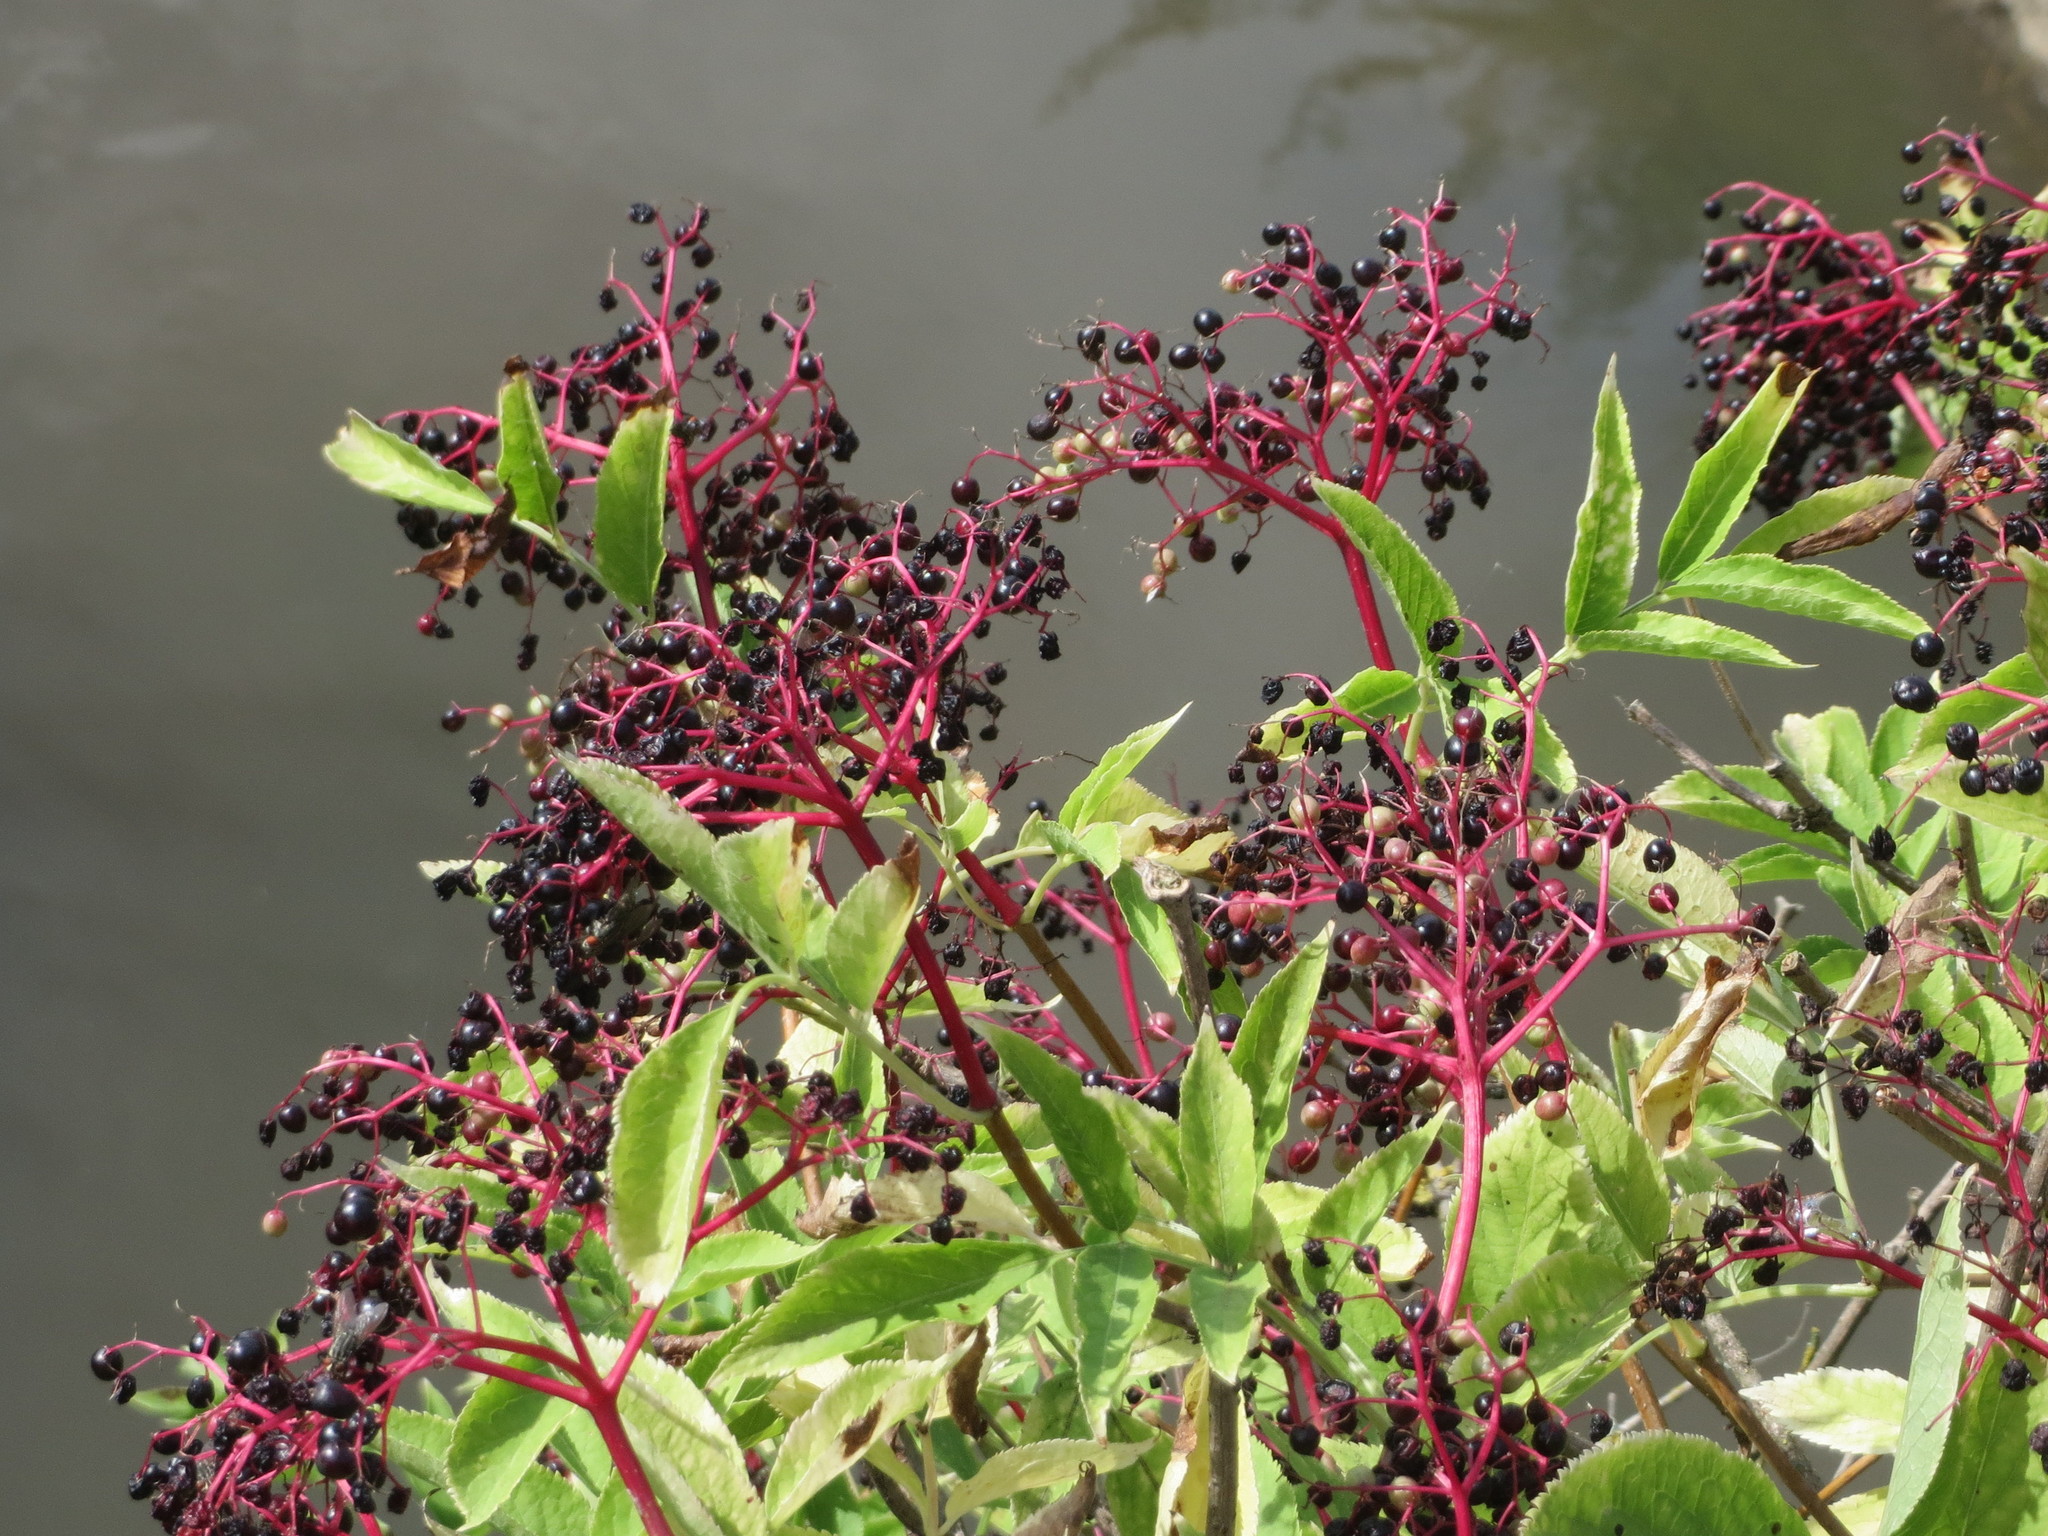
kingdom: Plantae
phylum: Tracheophyta
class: Magnoliopsida
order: Dipsacales
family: Viburnaceae
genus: Sambucus
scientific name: Sambucus nigra
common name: Elder
